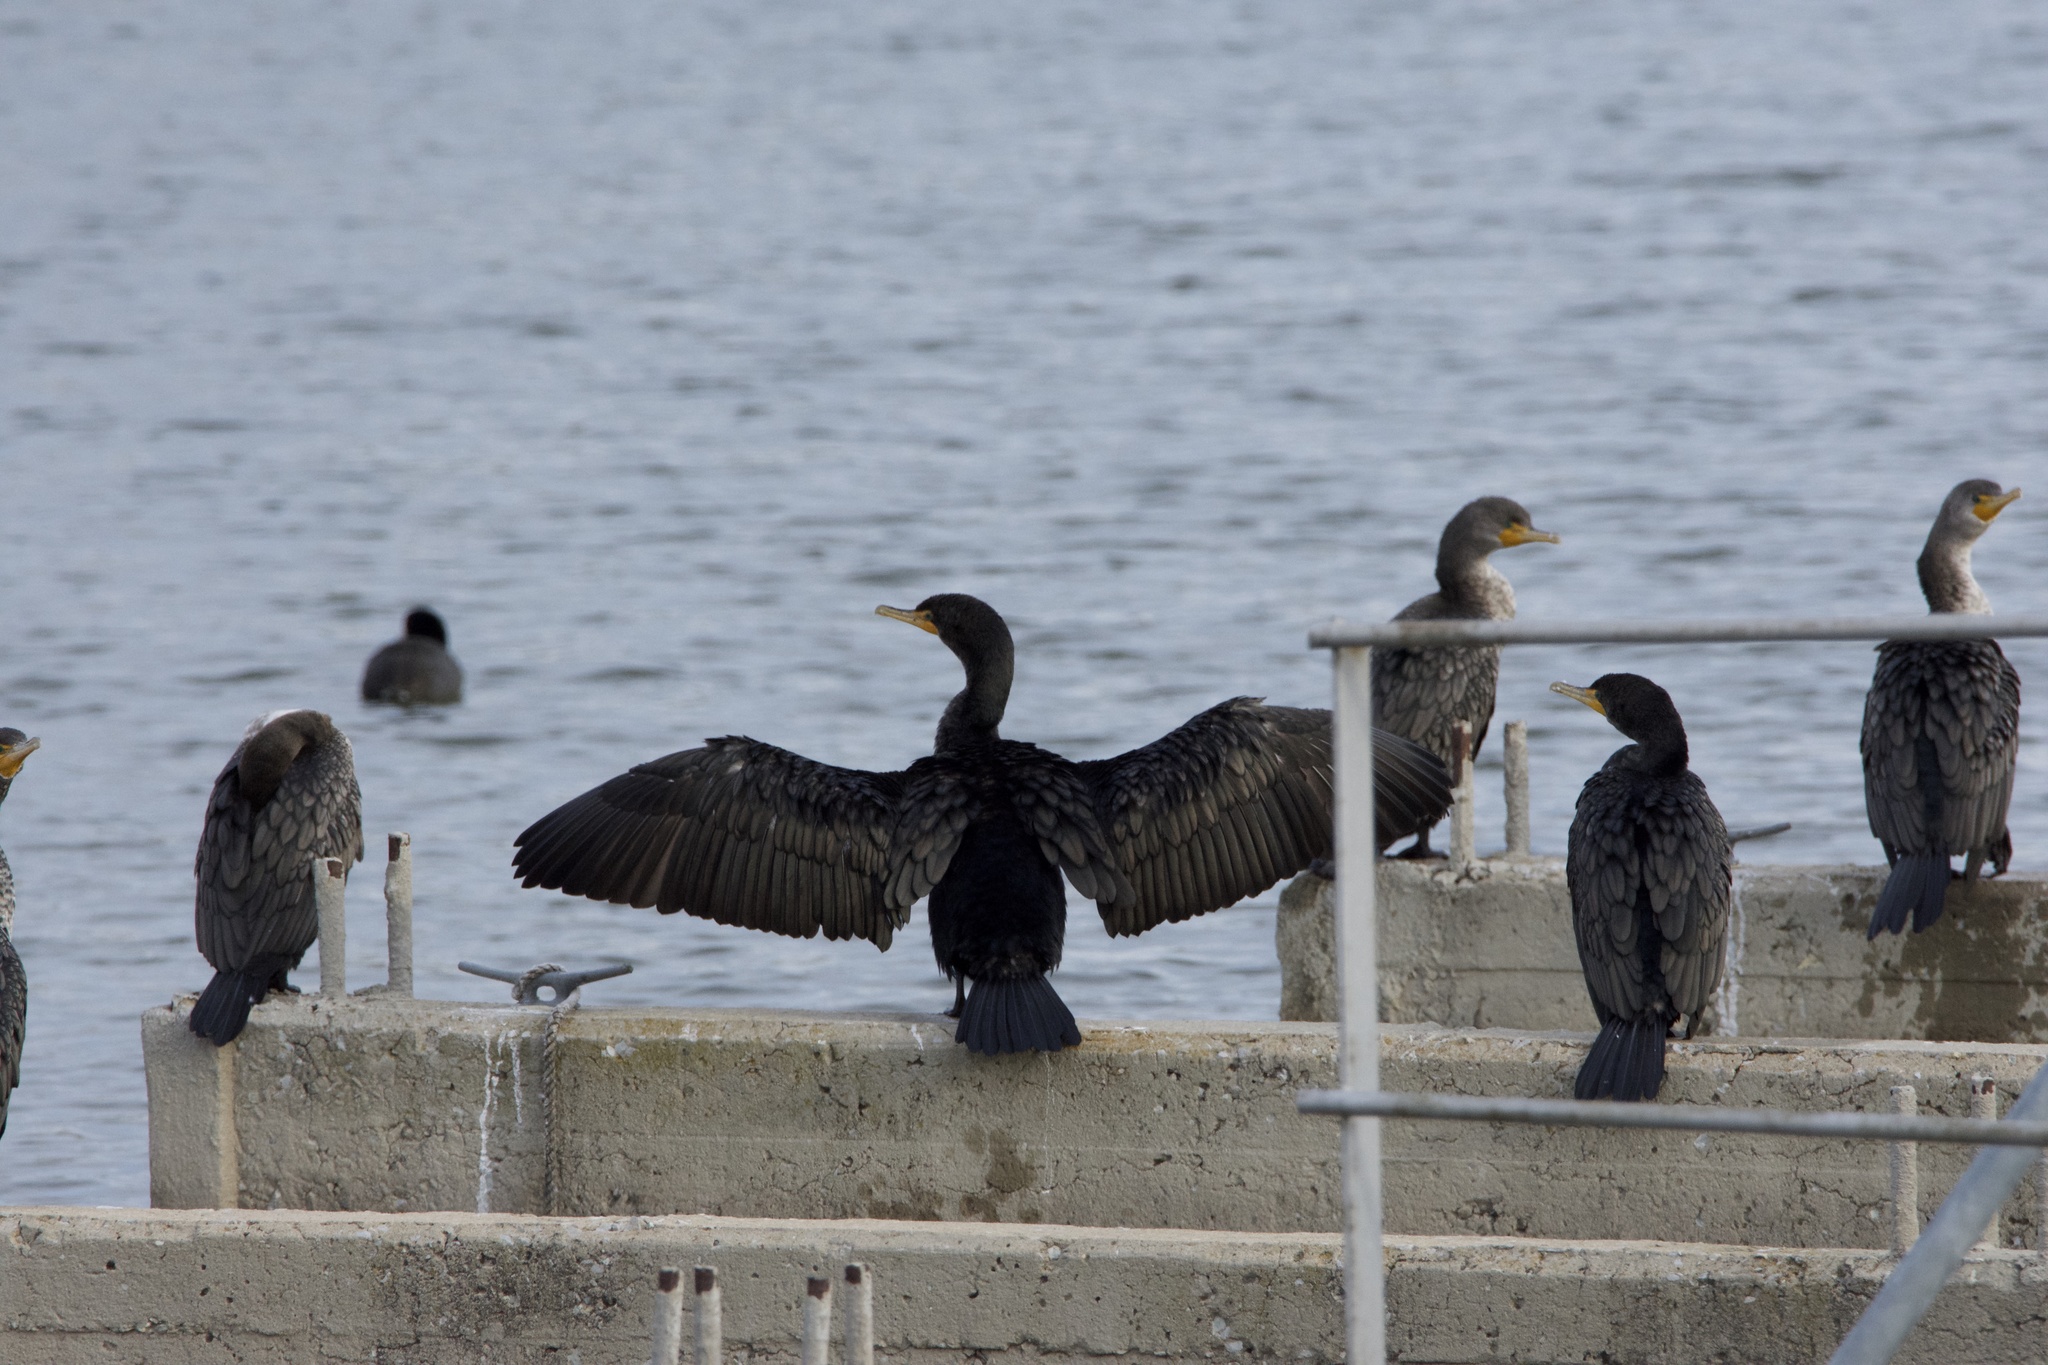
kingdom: Animalia
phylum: Chordata
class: Aves
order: Suliformes
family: Phalacrocoracidae
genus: Phalacrocorax
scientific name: Phalacrocorax auritus
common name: Double-crested cormorant
